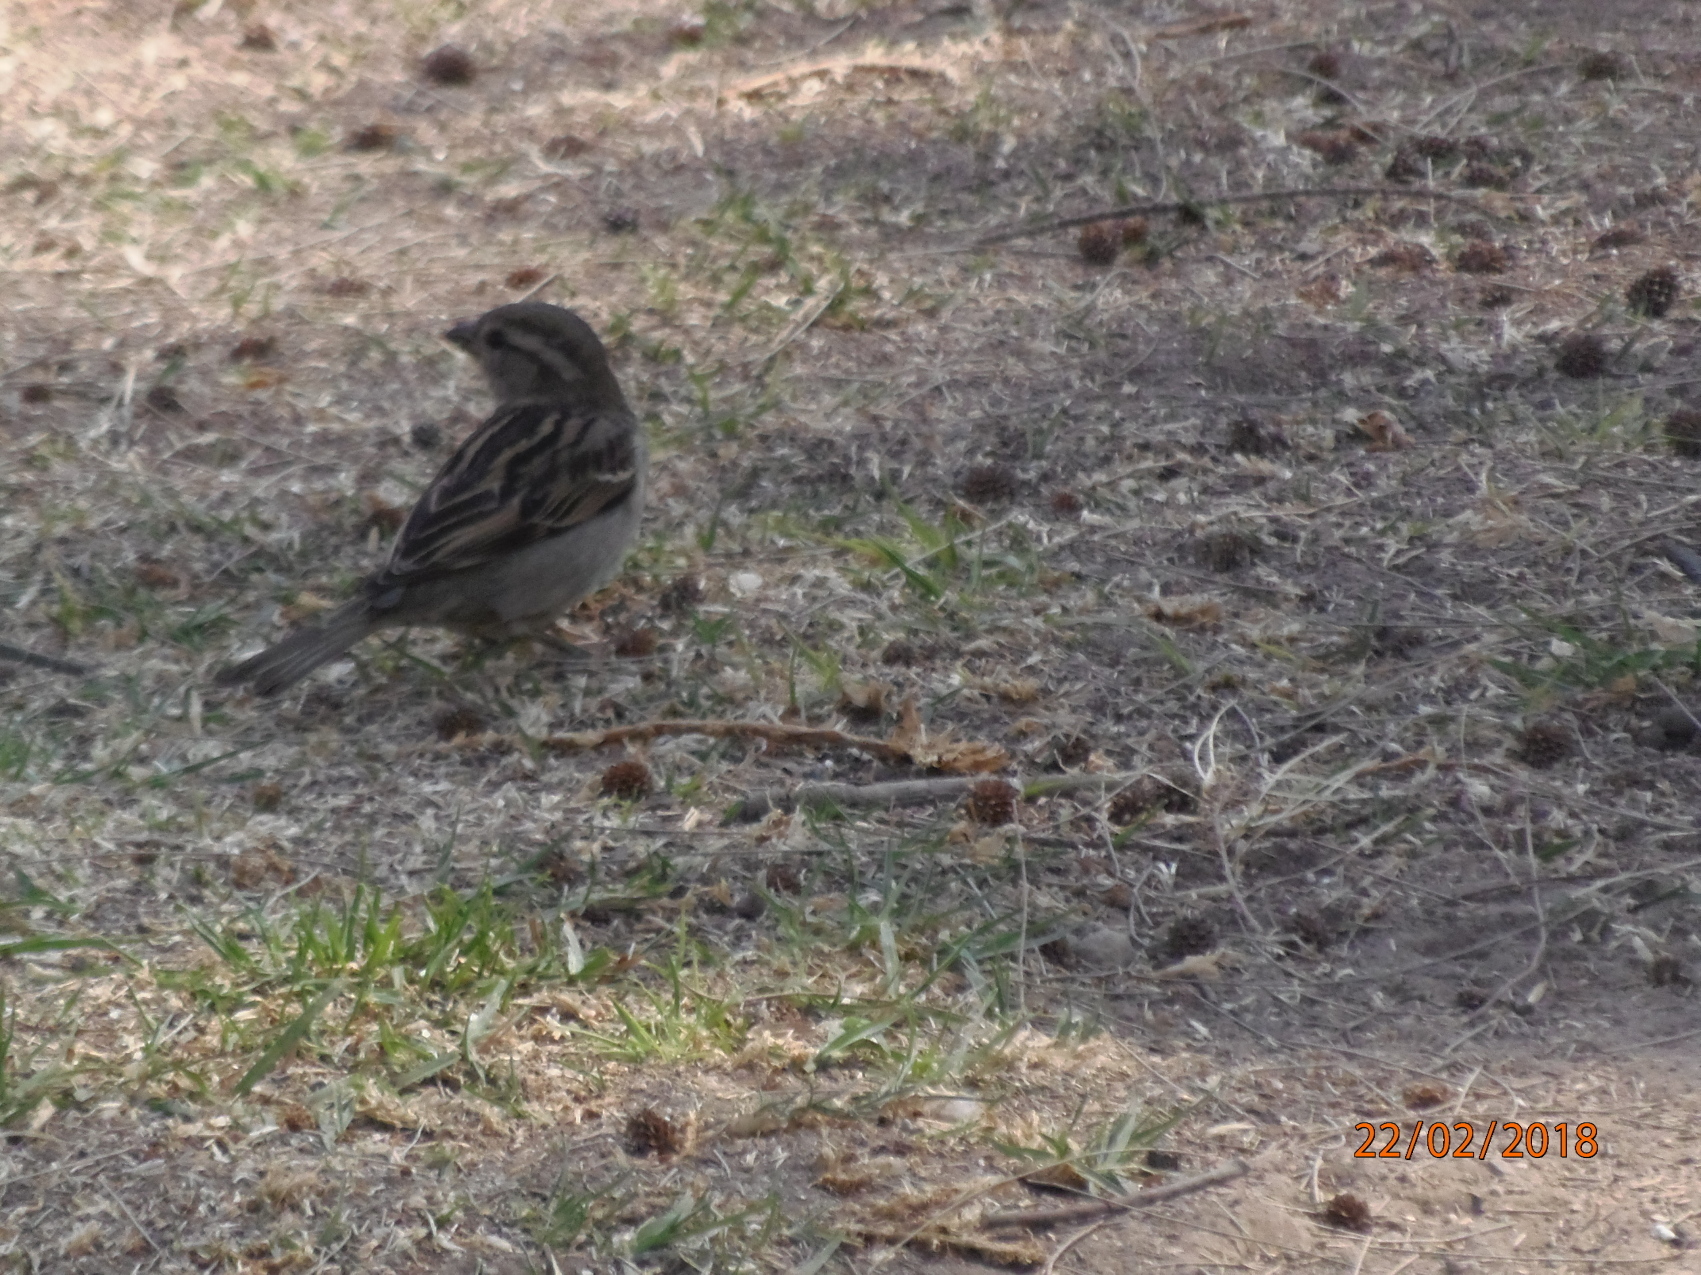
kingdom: Animalia
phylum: Chordata
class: Aves
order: Passeriformes
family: Passeridae
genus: Passer
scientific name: Passer domesticus
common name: House sparrow
